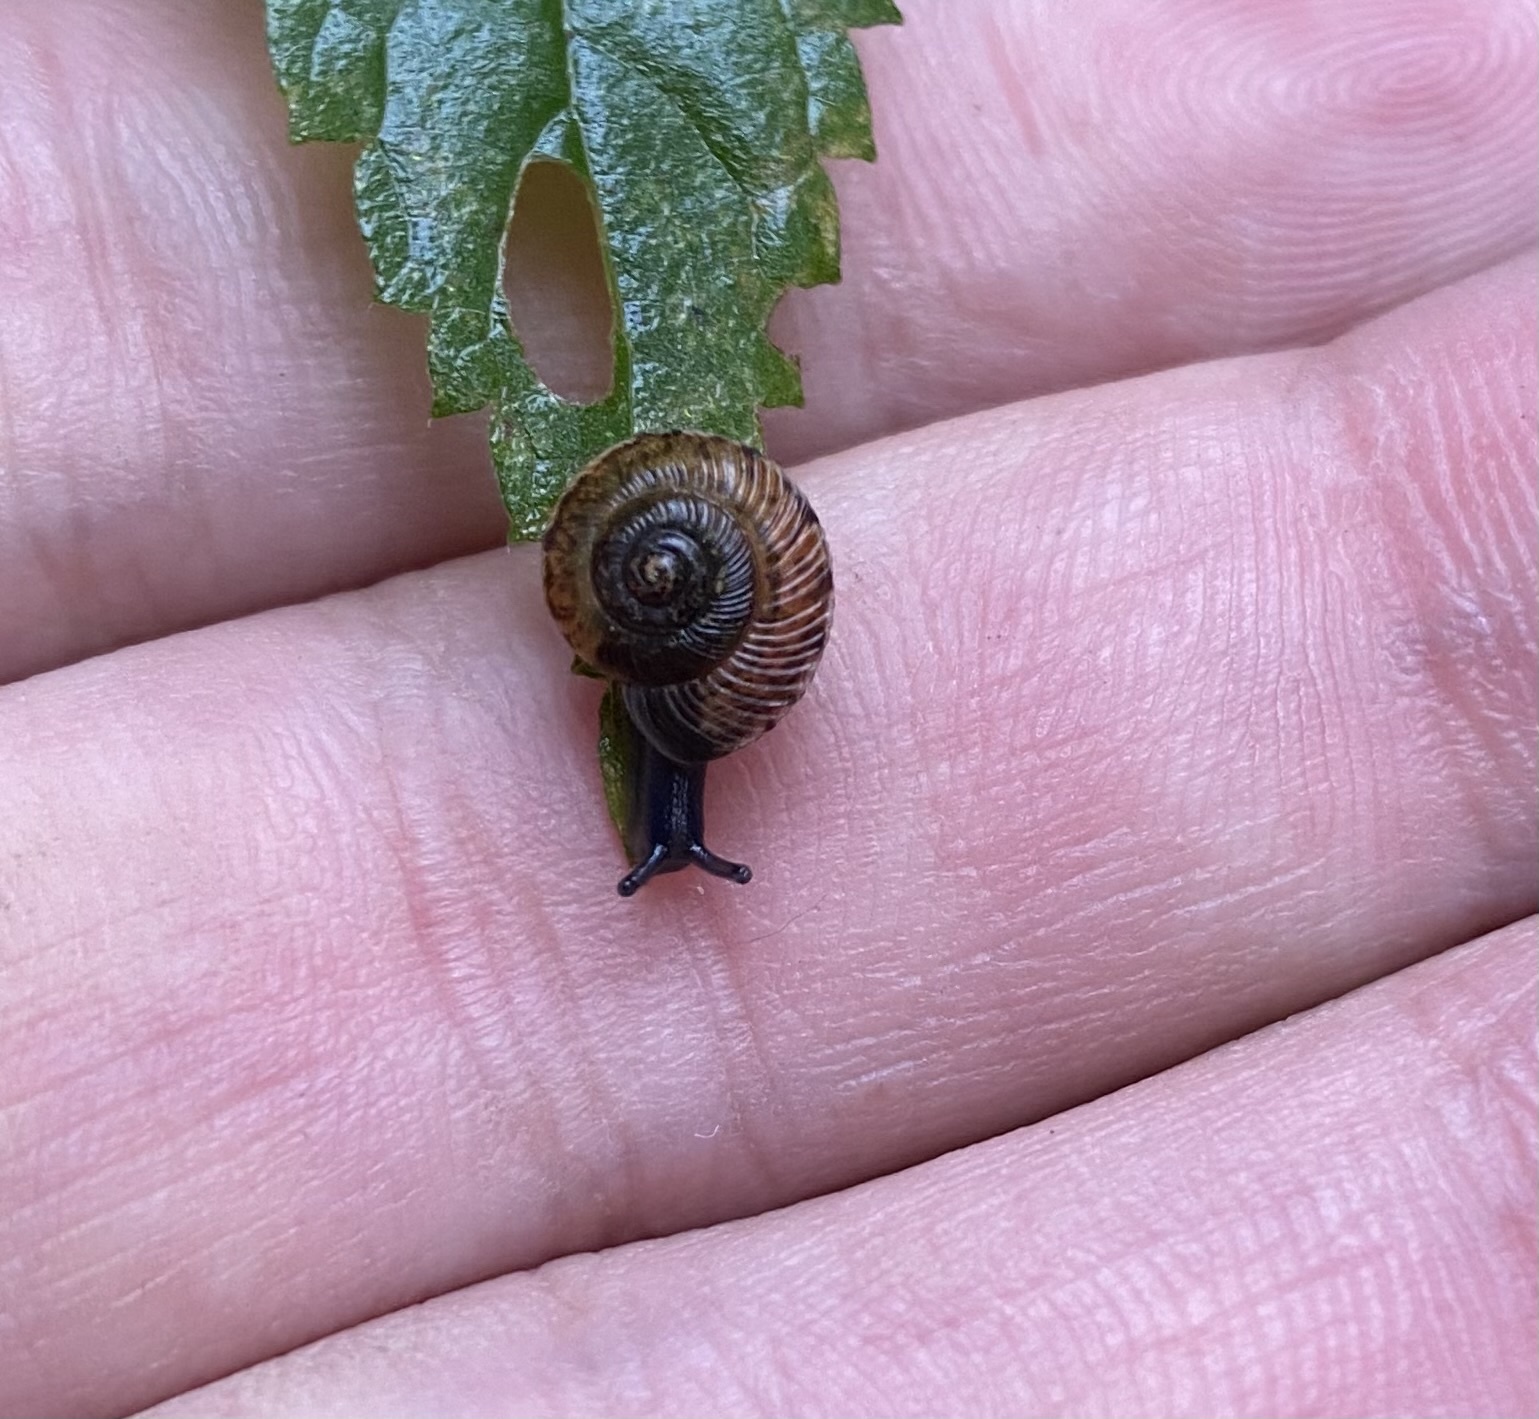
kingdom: Animalia
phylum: Mollusca
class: Gastropoda
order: Stylommatophora
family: Hygromiidae
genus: Oscarboettgeria
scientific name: Oscarboettgeria euages
